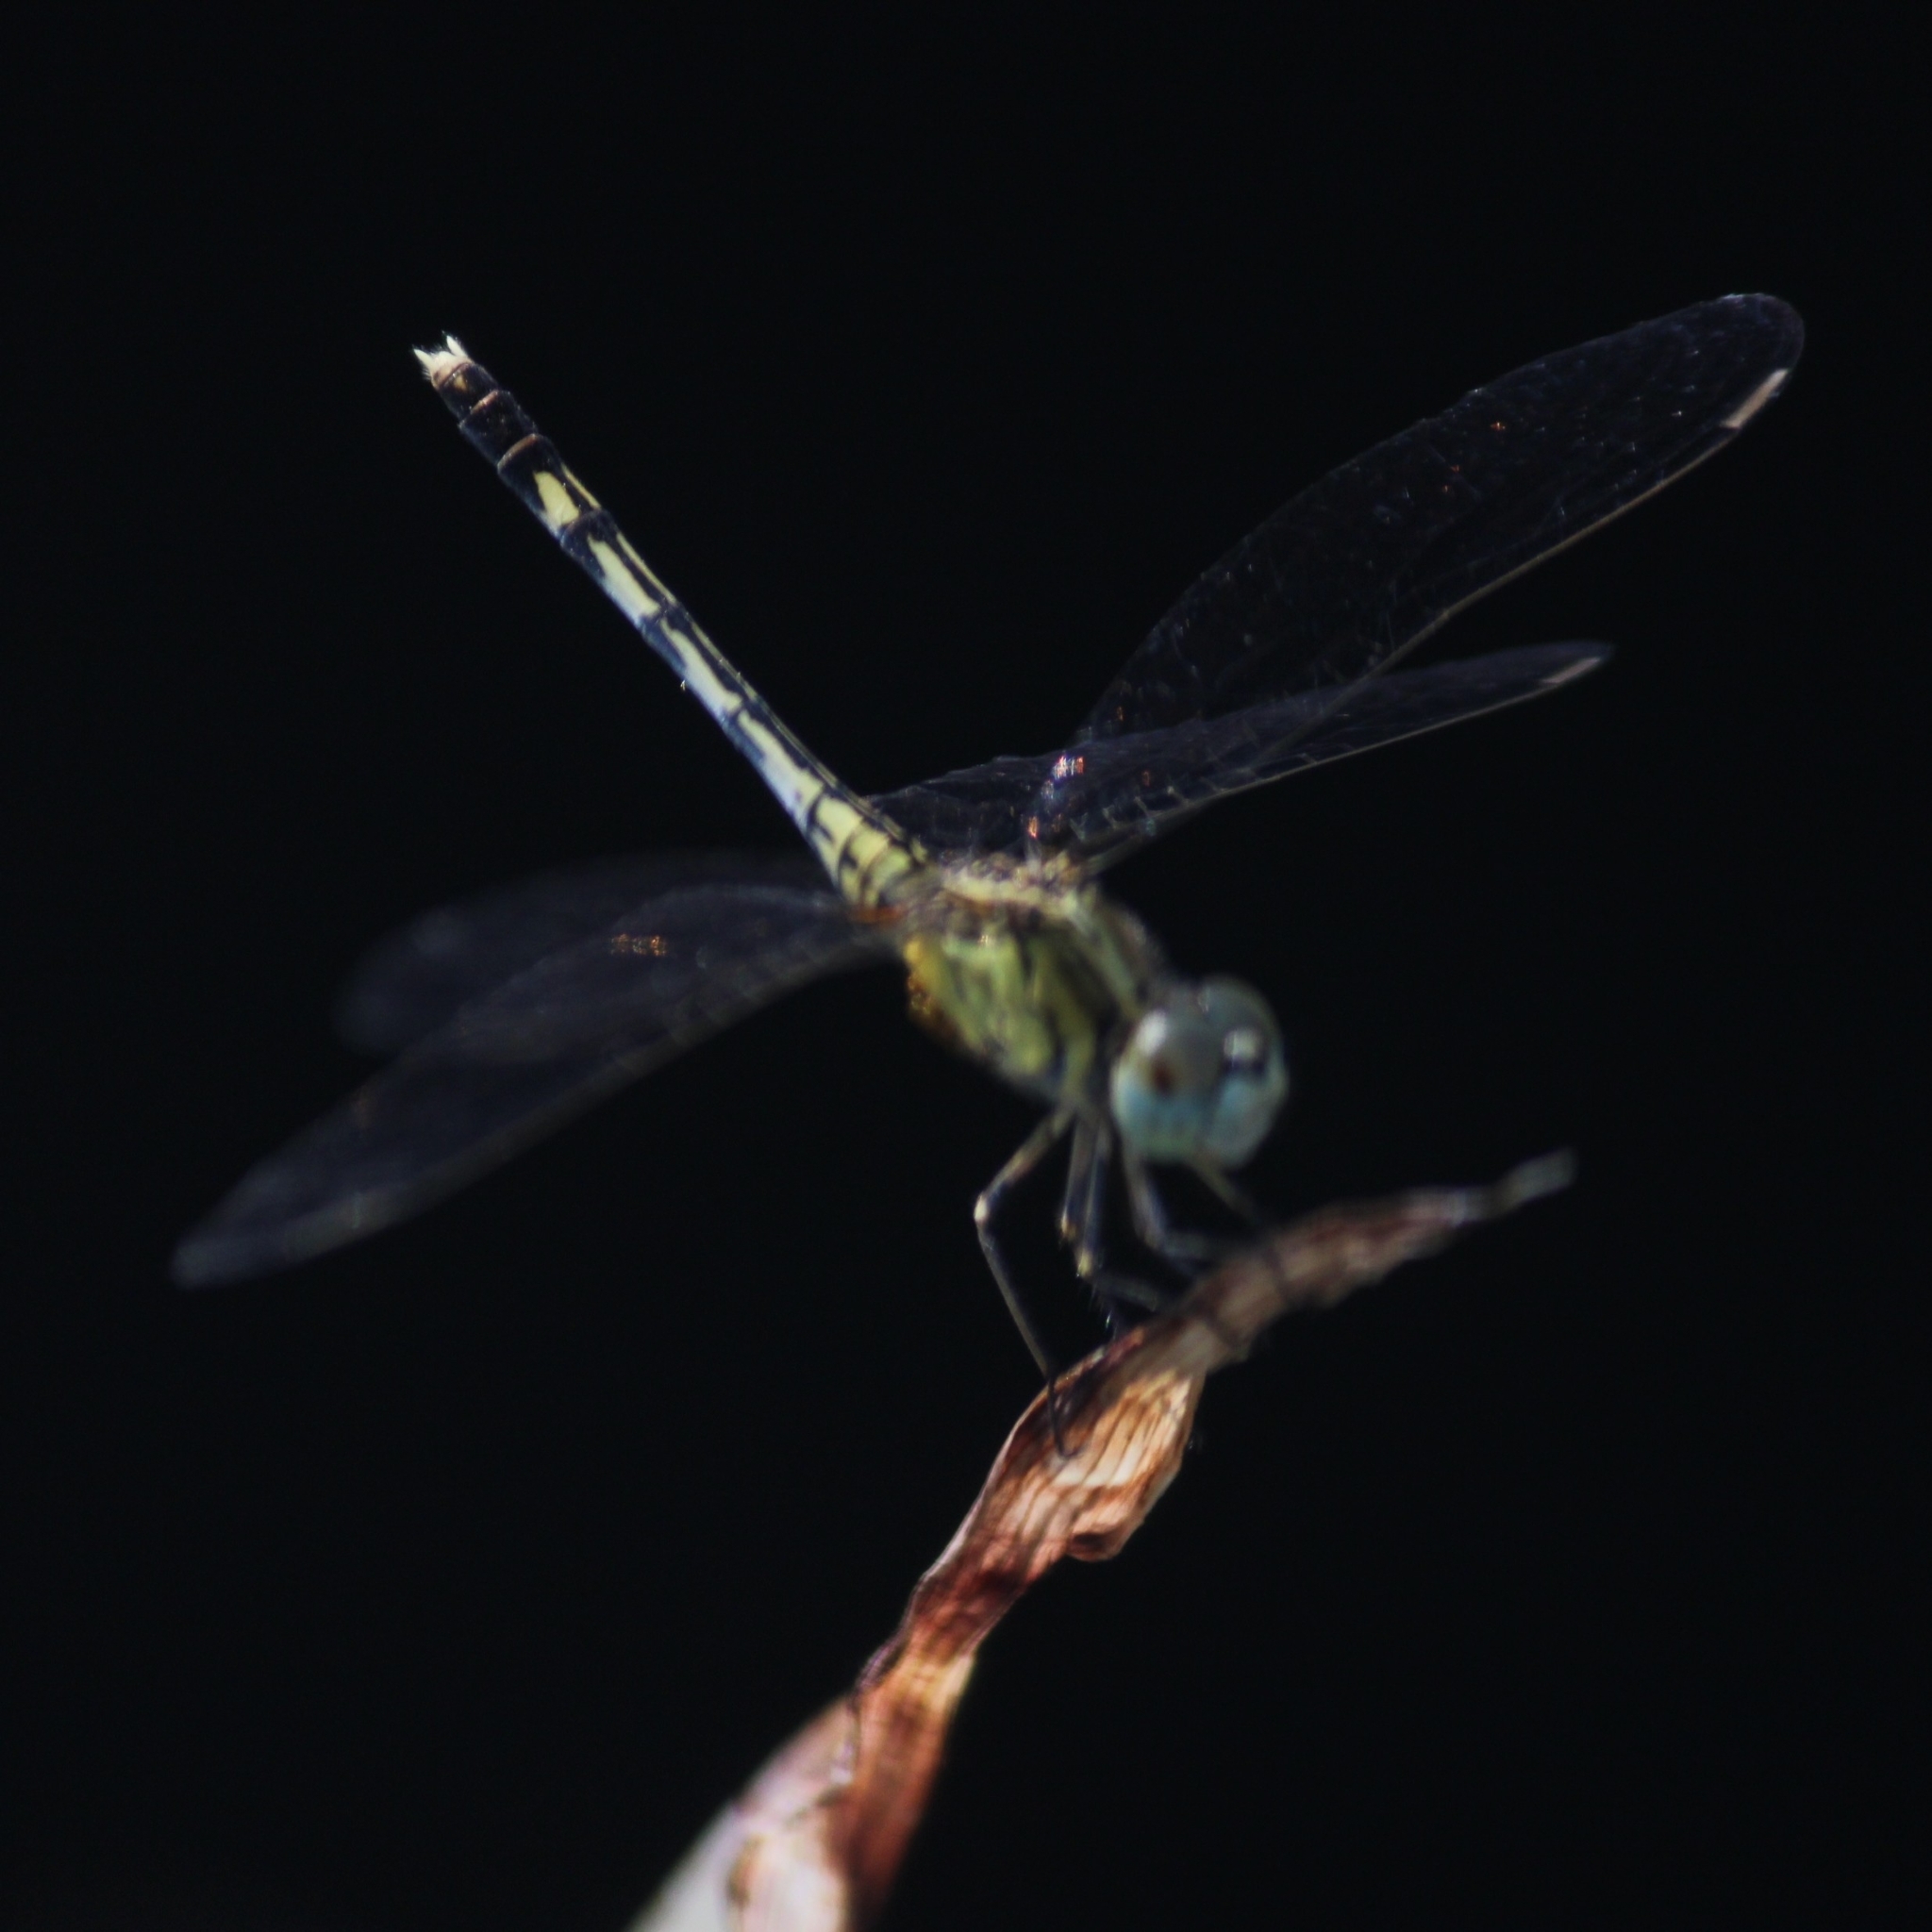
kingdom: Animalia
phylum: Arthropoda
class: Insecta
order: Odonata
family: Libellulidae
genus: Diplacodes
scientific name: Diplacodes trivialis
